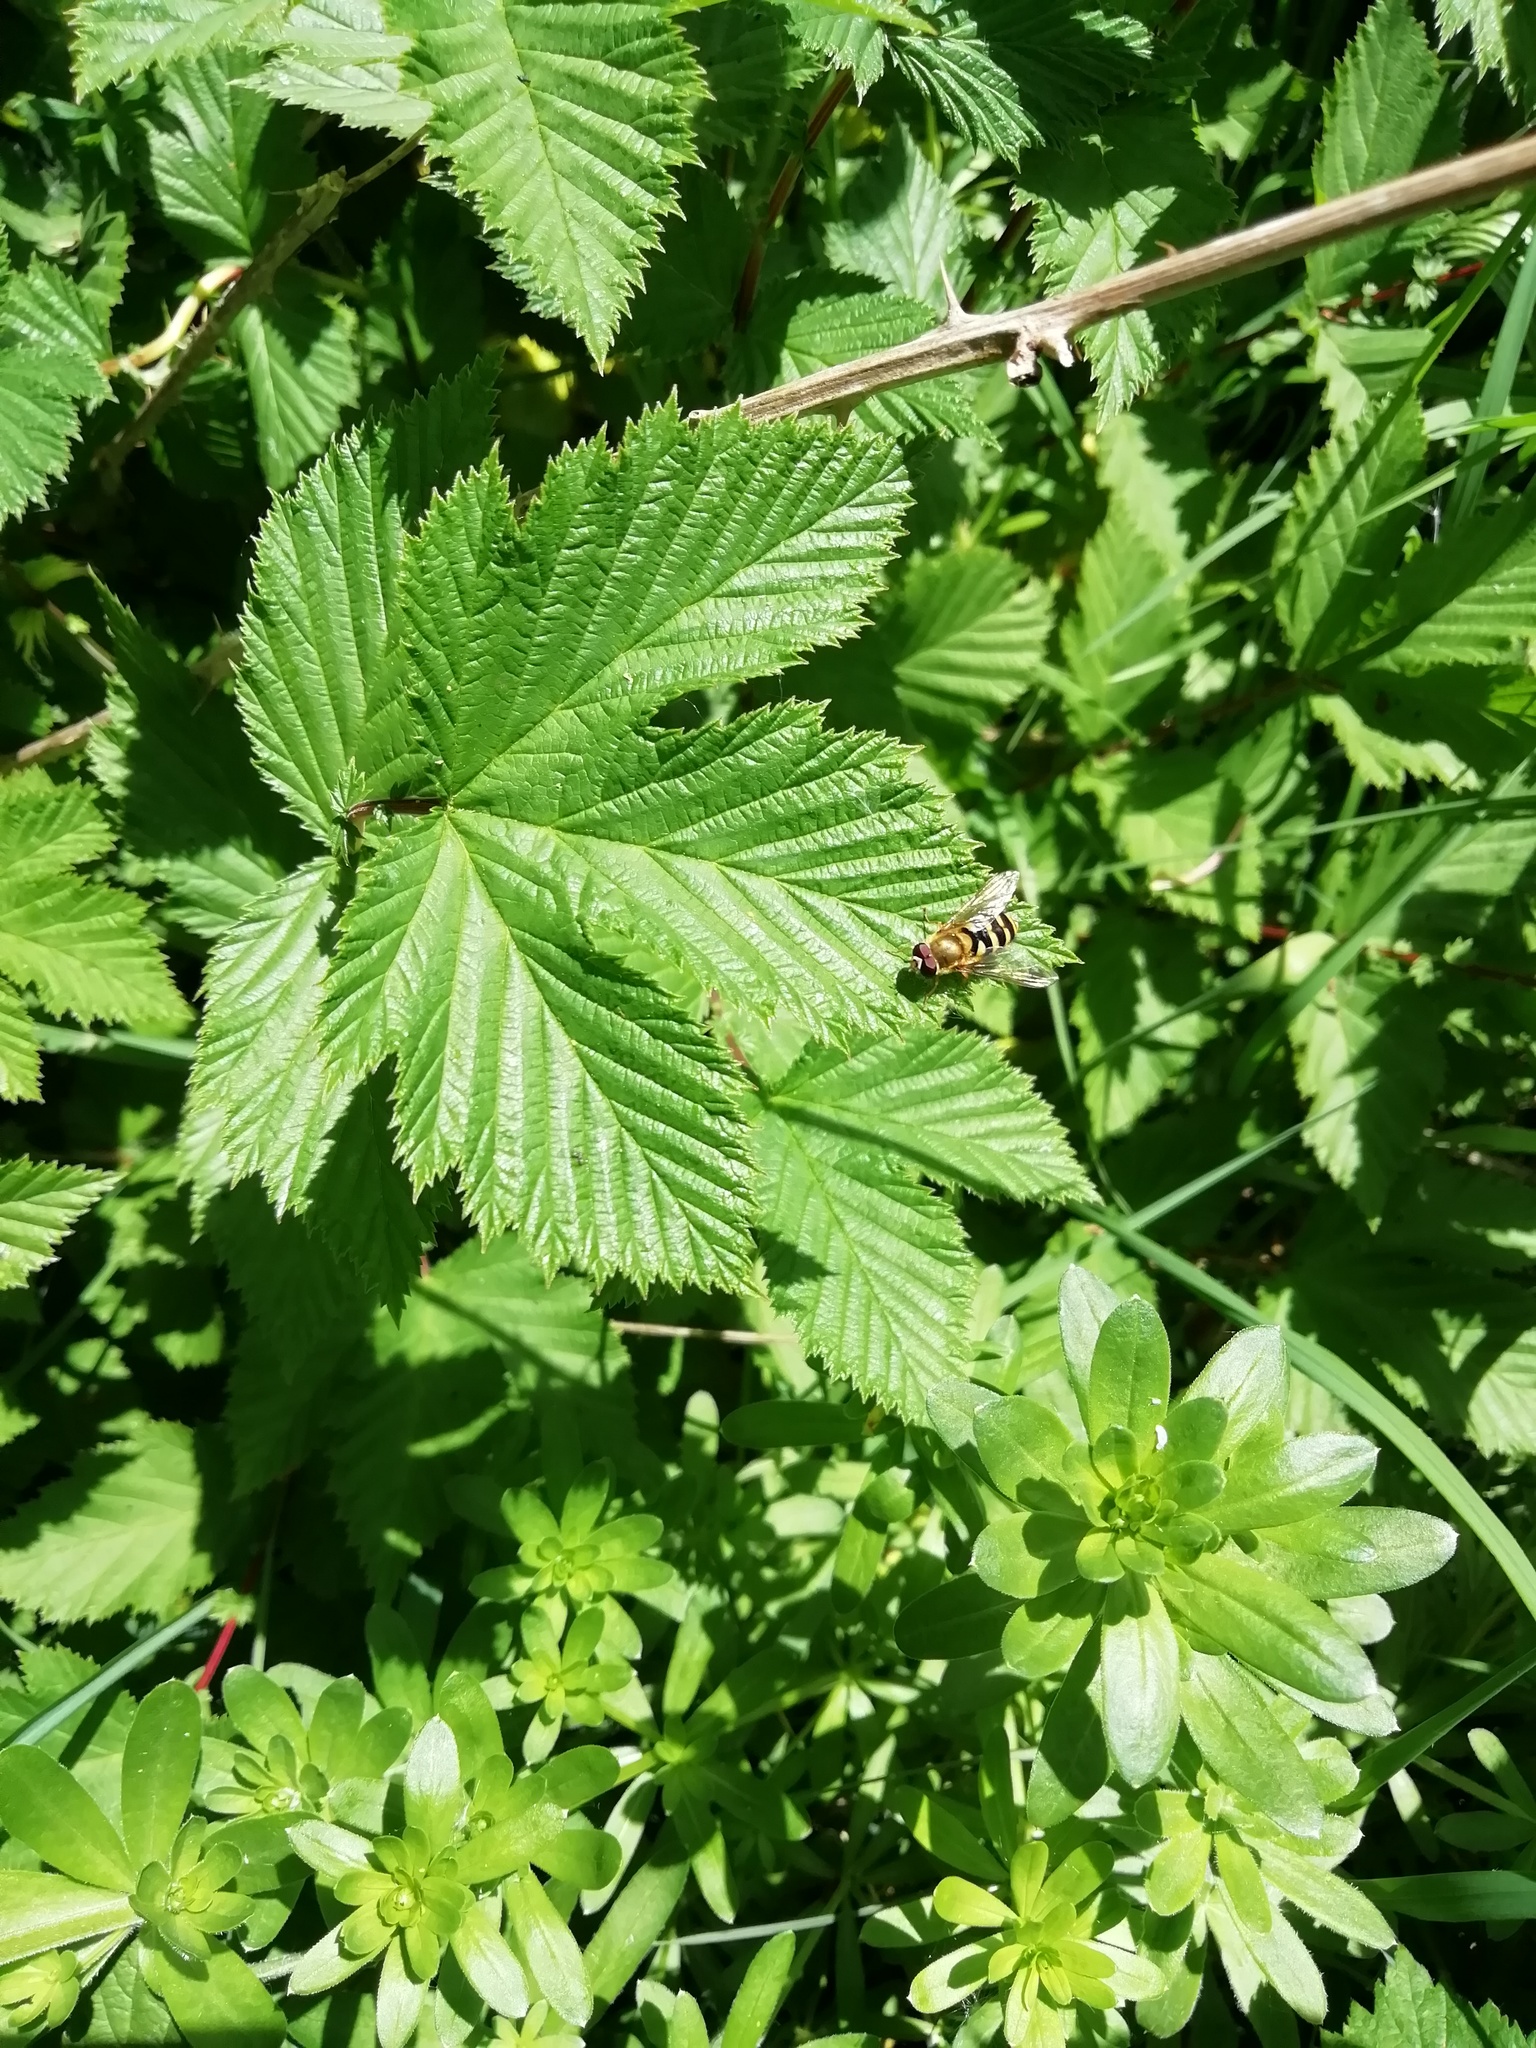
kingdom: Animalia
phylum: Arthropoda
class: Insecta
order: Diptera
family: Syrphidae
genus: Syrphus
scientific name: Syrphus
